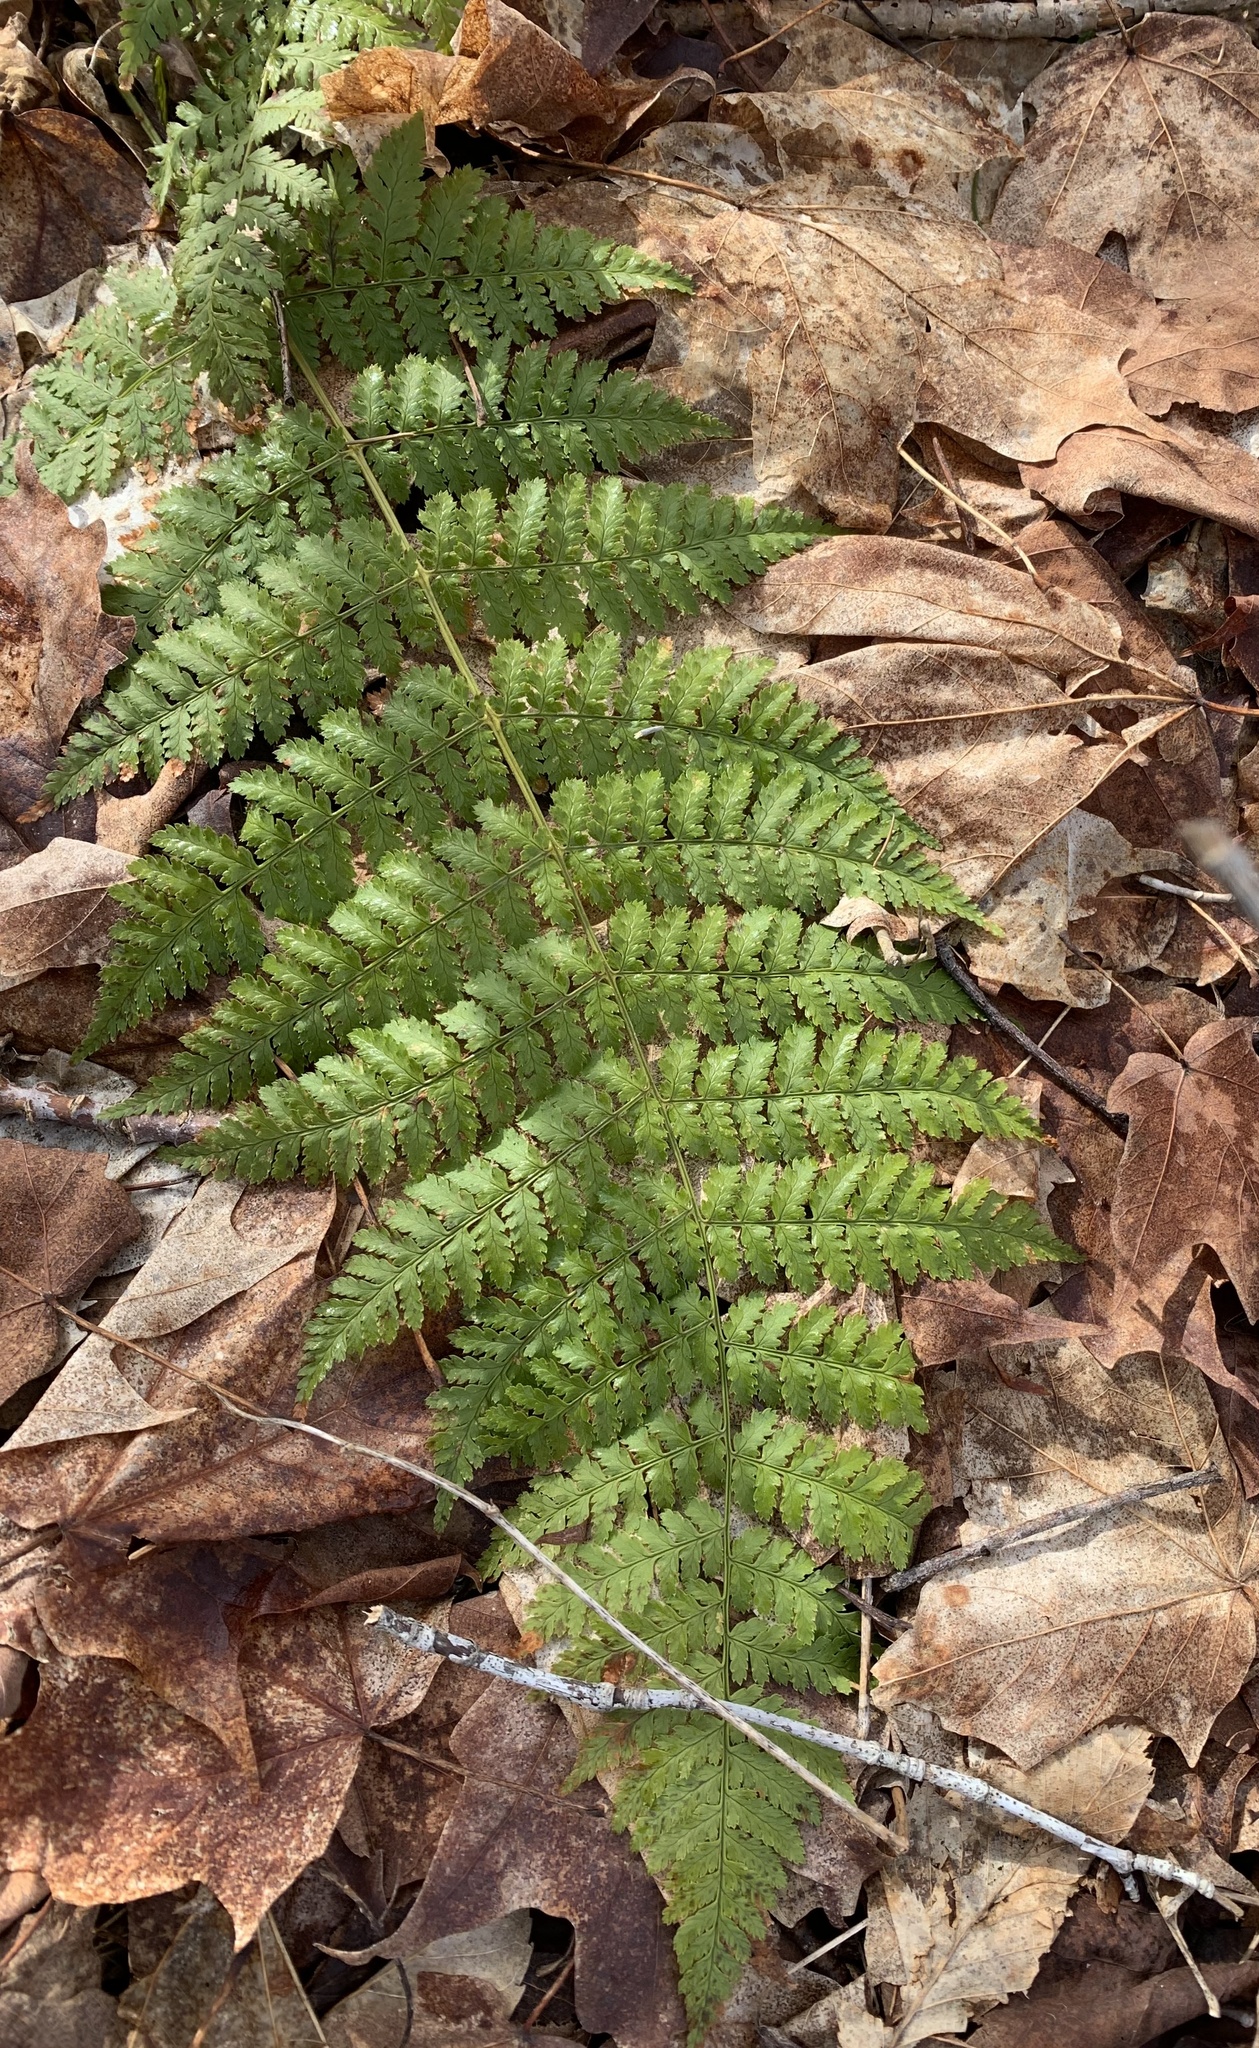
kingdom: Plantae
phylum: Tracheophyta
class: Polypodiopsida
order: Polypodiales
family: Dryopteridaceae
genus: Dryopteris
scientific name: Dryopteris intermedia
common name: Evergreen wood fern
